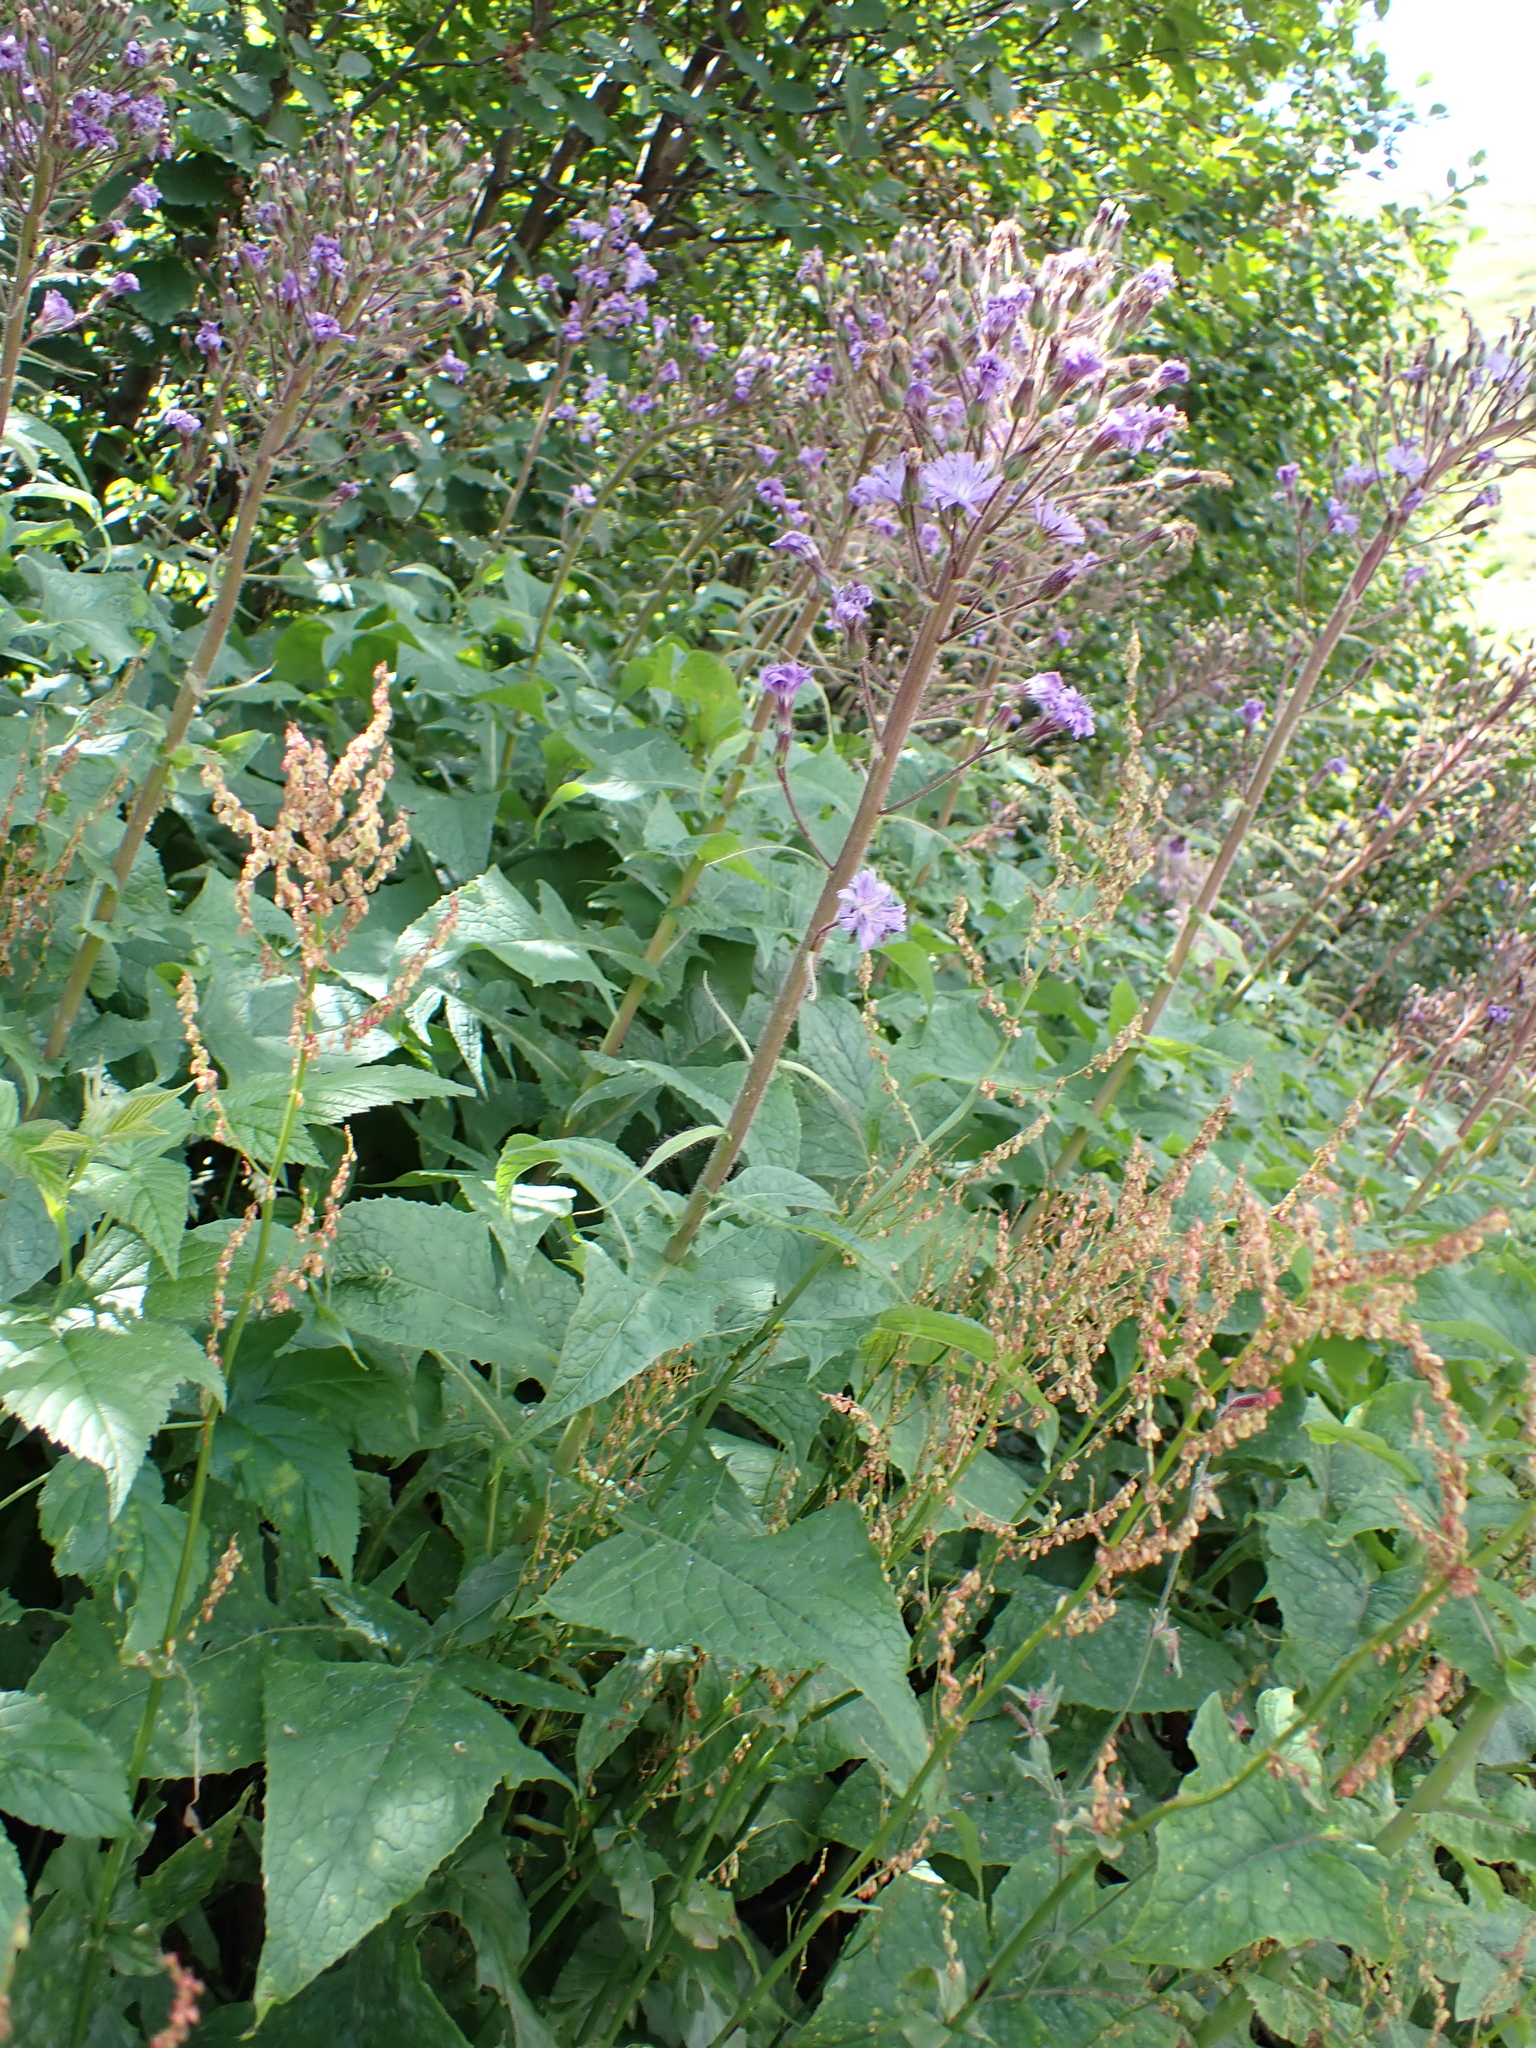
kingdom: Plantae
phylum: Tracheophyta
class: Magnoliopsida
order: Asterales
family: Asteraceae
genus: Cicerbita
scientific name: Cicerbita alpina
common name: Alpine blue-sow-thistle
